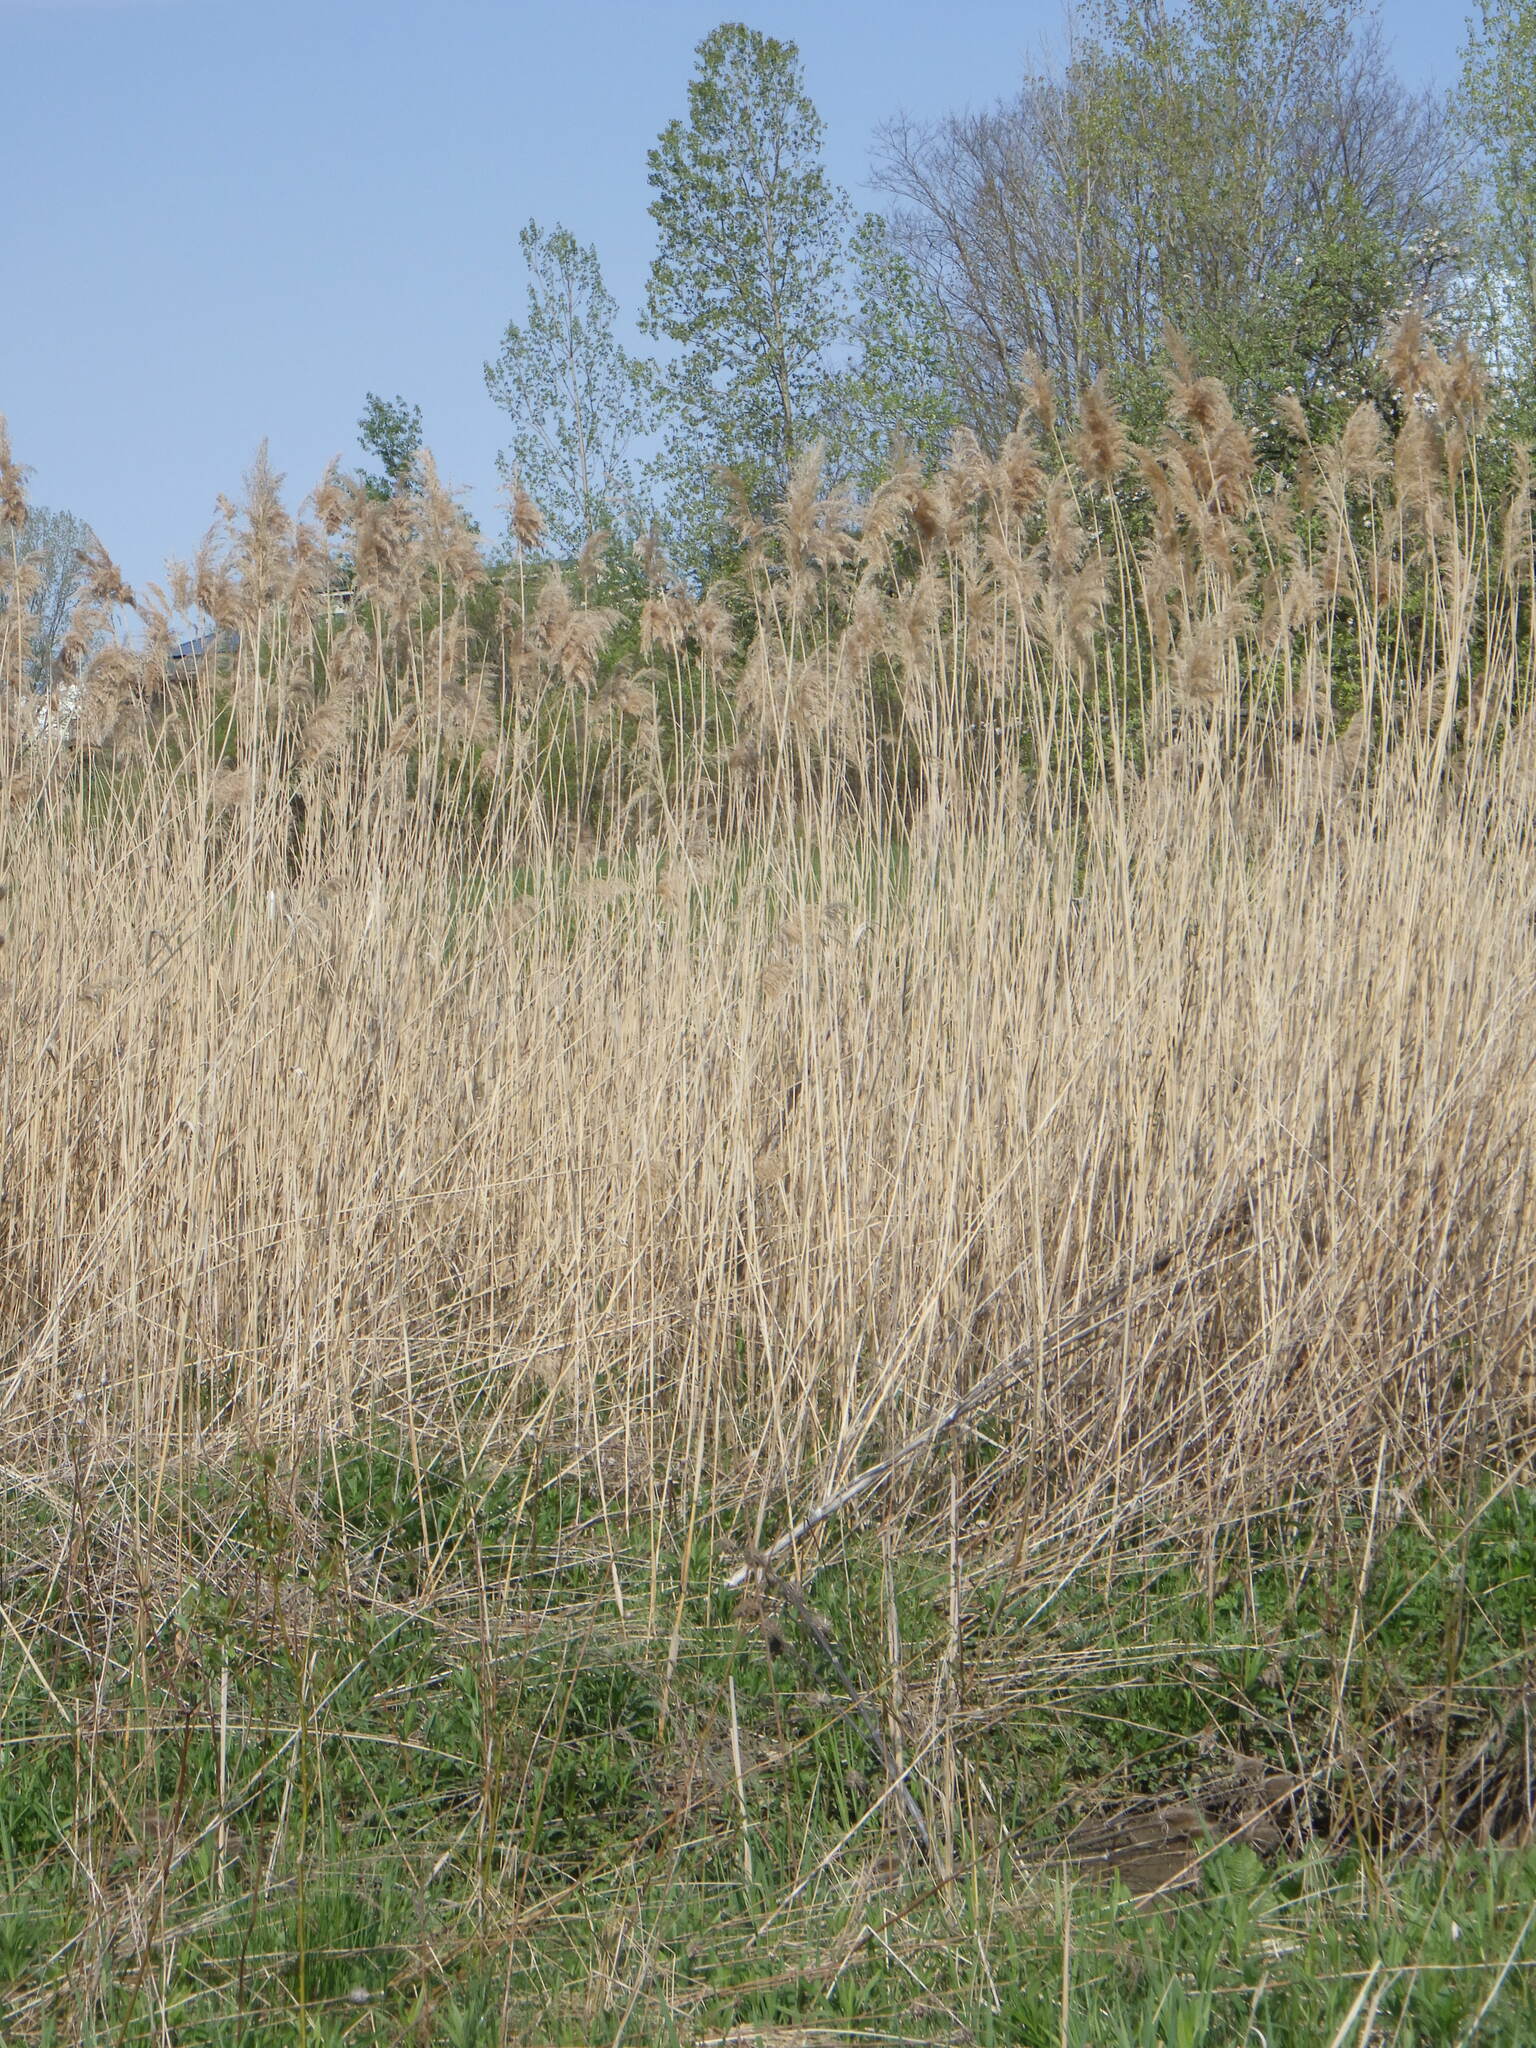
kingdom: Plantae
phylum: Tracheophyta
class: Liliopsida
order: Poales
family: Poaceae
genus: Phragmites
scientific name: Phragmites australis
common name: Common reed
